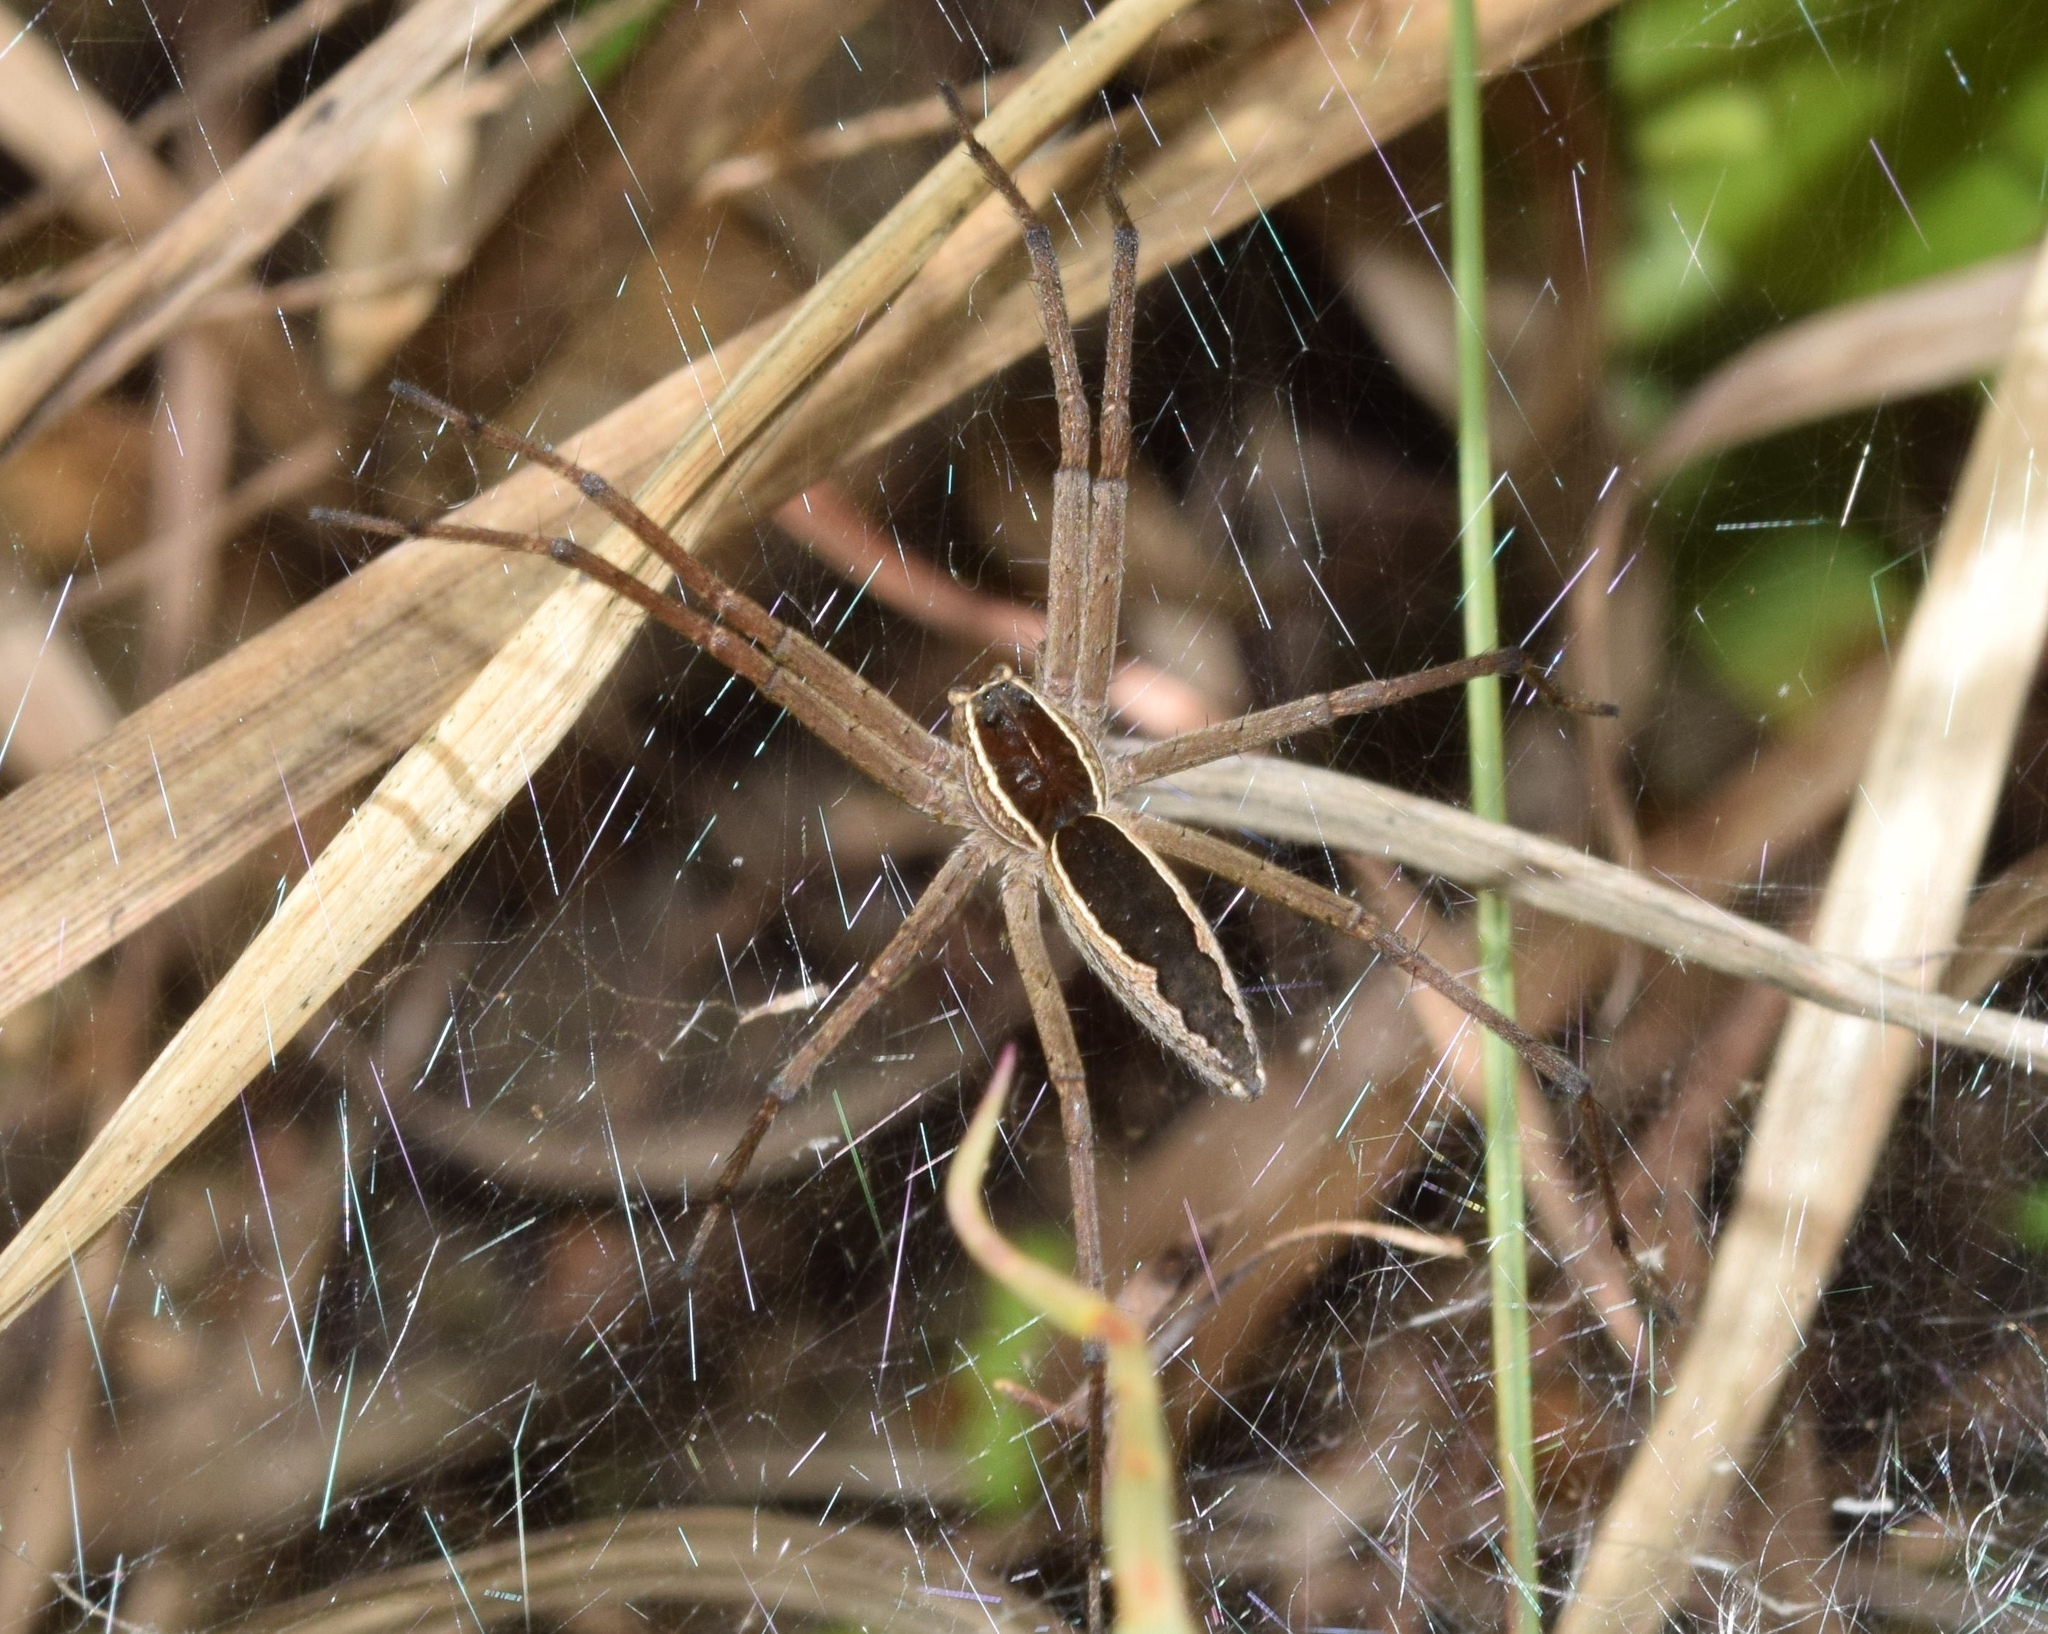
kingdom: Animalia
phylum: Arthropoda
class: Arachnida
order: Araneae
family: Pisauridae
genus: Euprosthenopsis
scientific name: Euprosthenopsis pulchella
